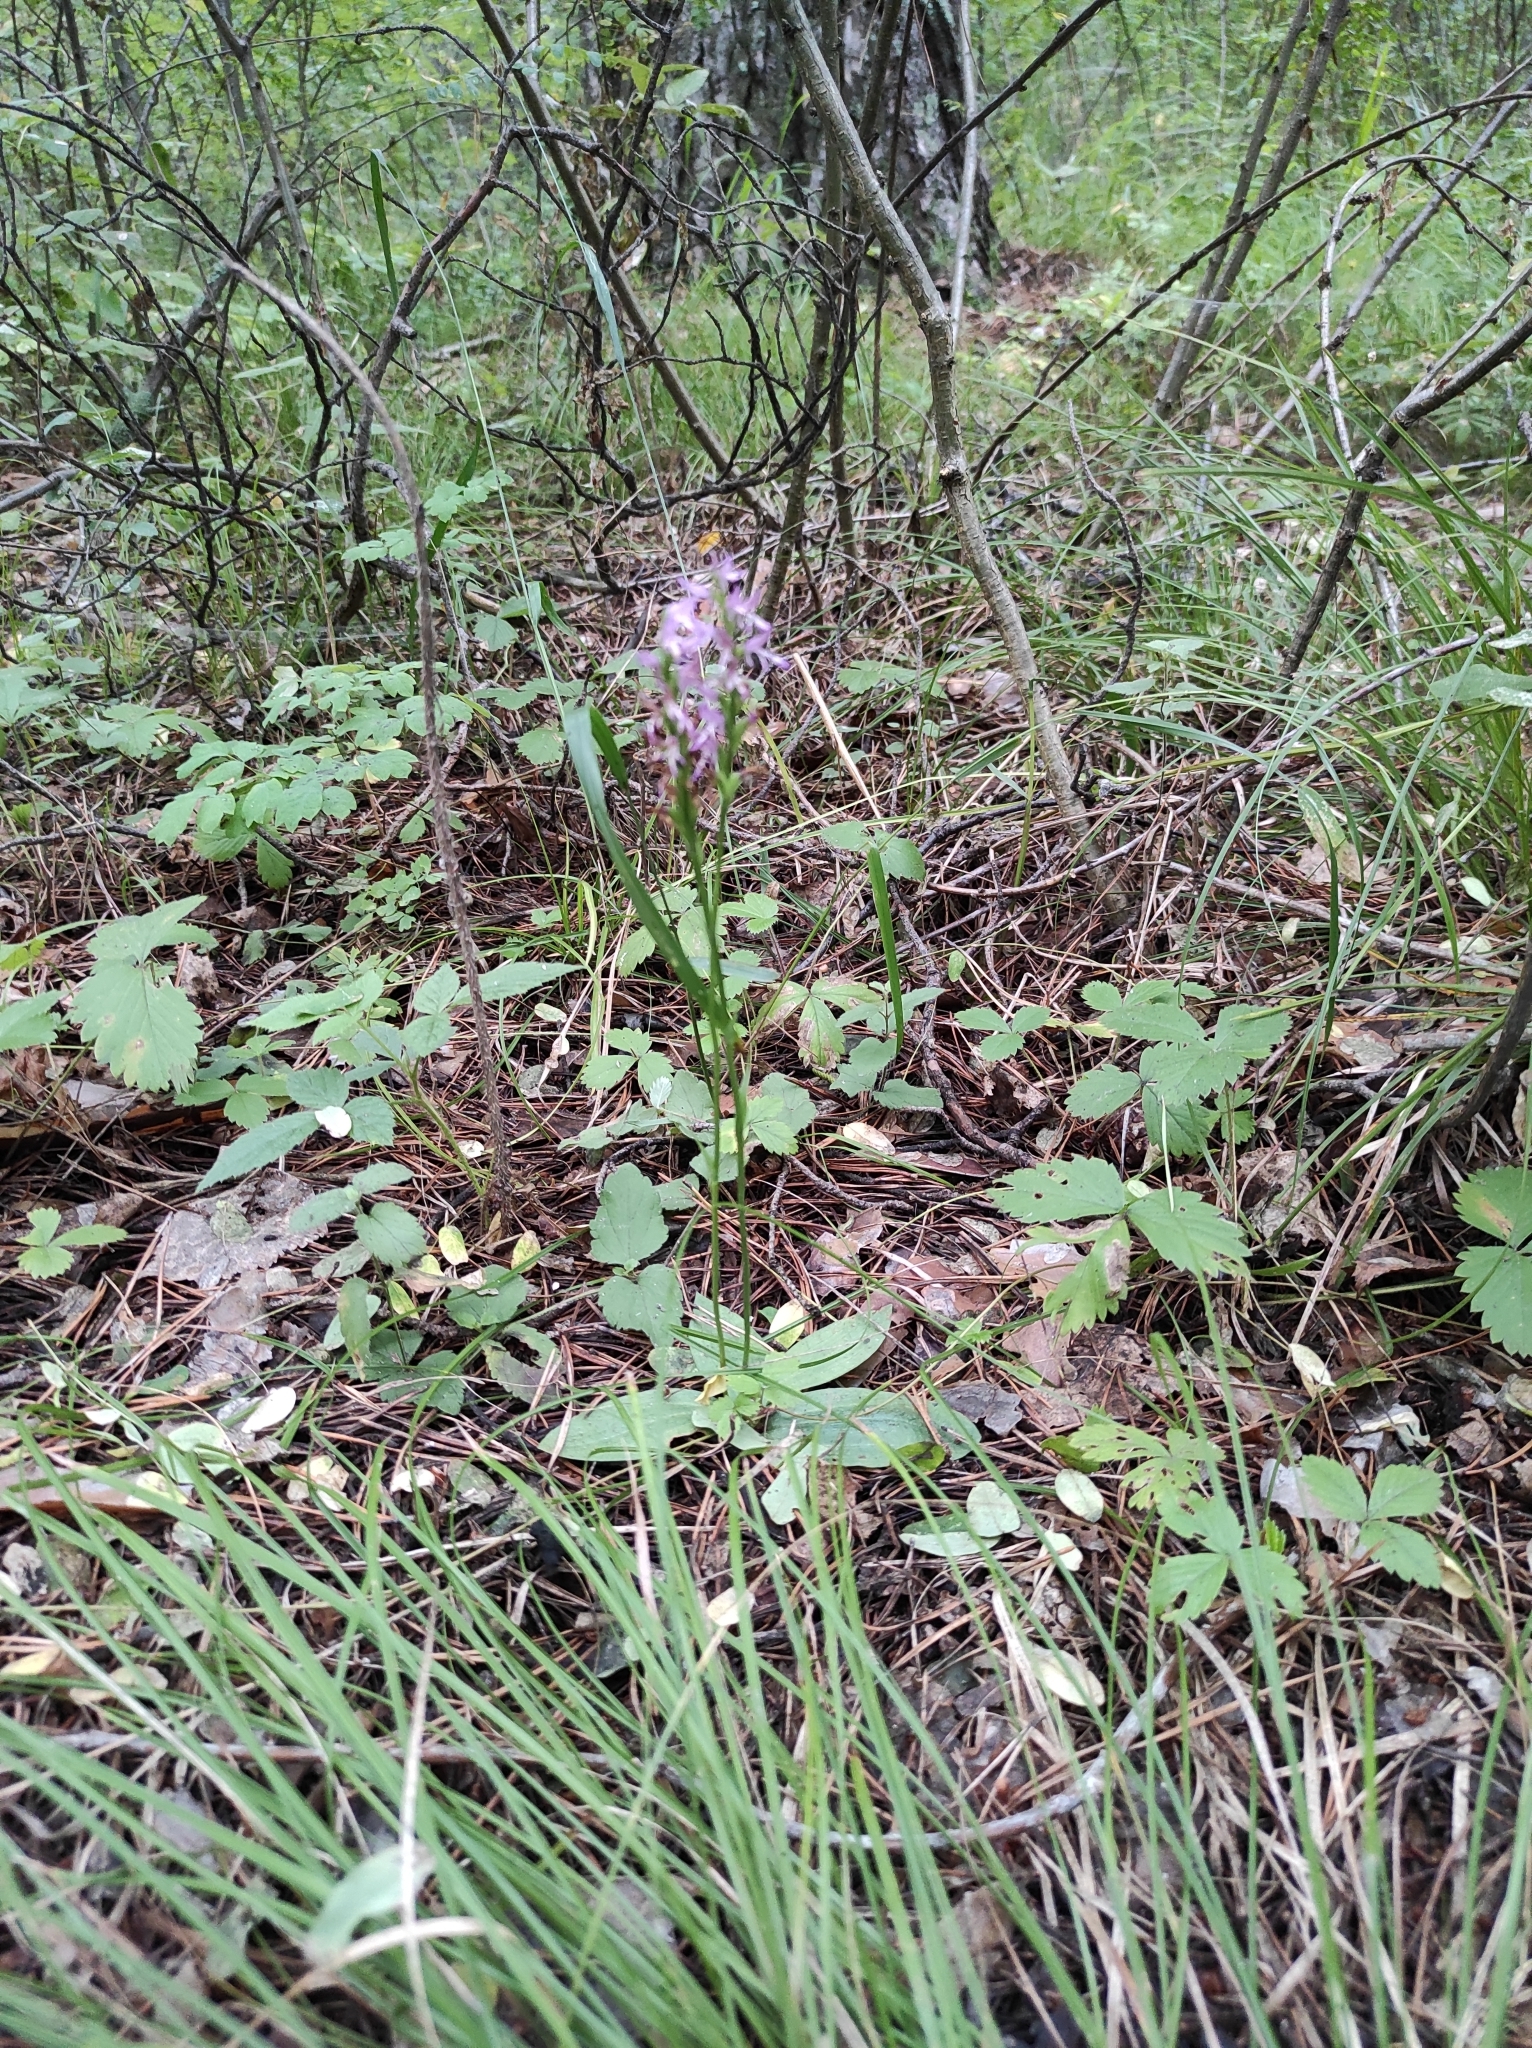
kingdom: Plantae
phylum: Tracheophyta
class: Liliopsida
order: Asparagales
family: Orchidaceae
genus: Hemipilia
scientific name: Hemipilia cucullata
